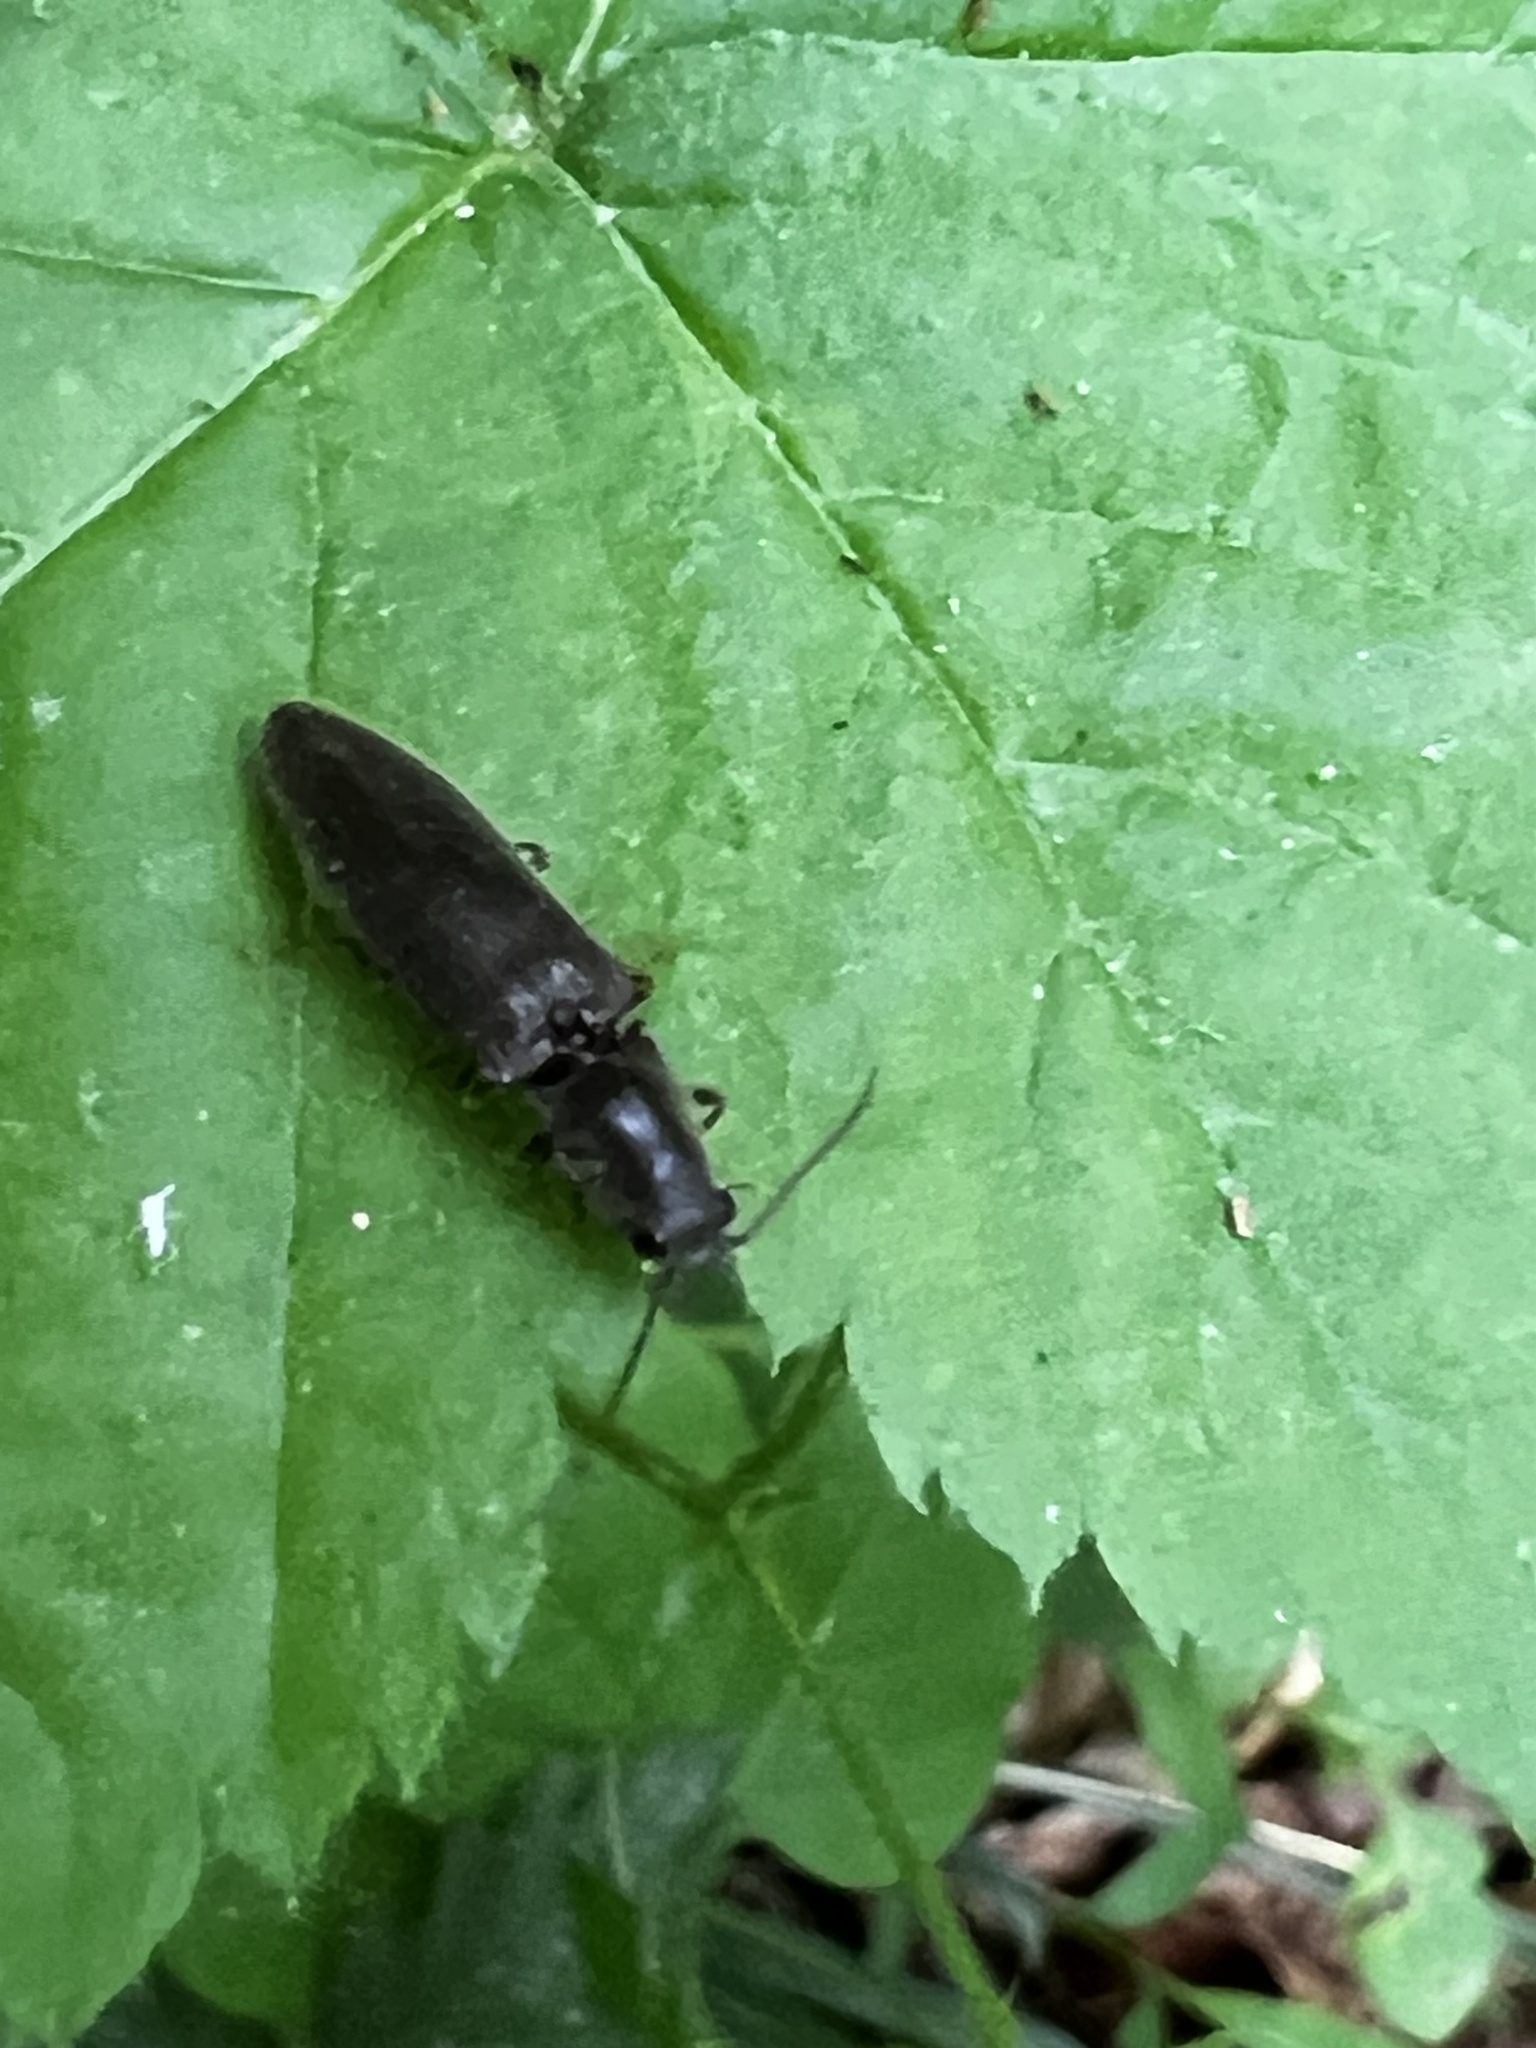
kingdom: Animalia
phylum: Arthropoda
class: Insecta
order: Coleoptera
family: Elateridae
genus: Athous
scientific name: Athous brightwelli
